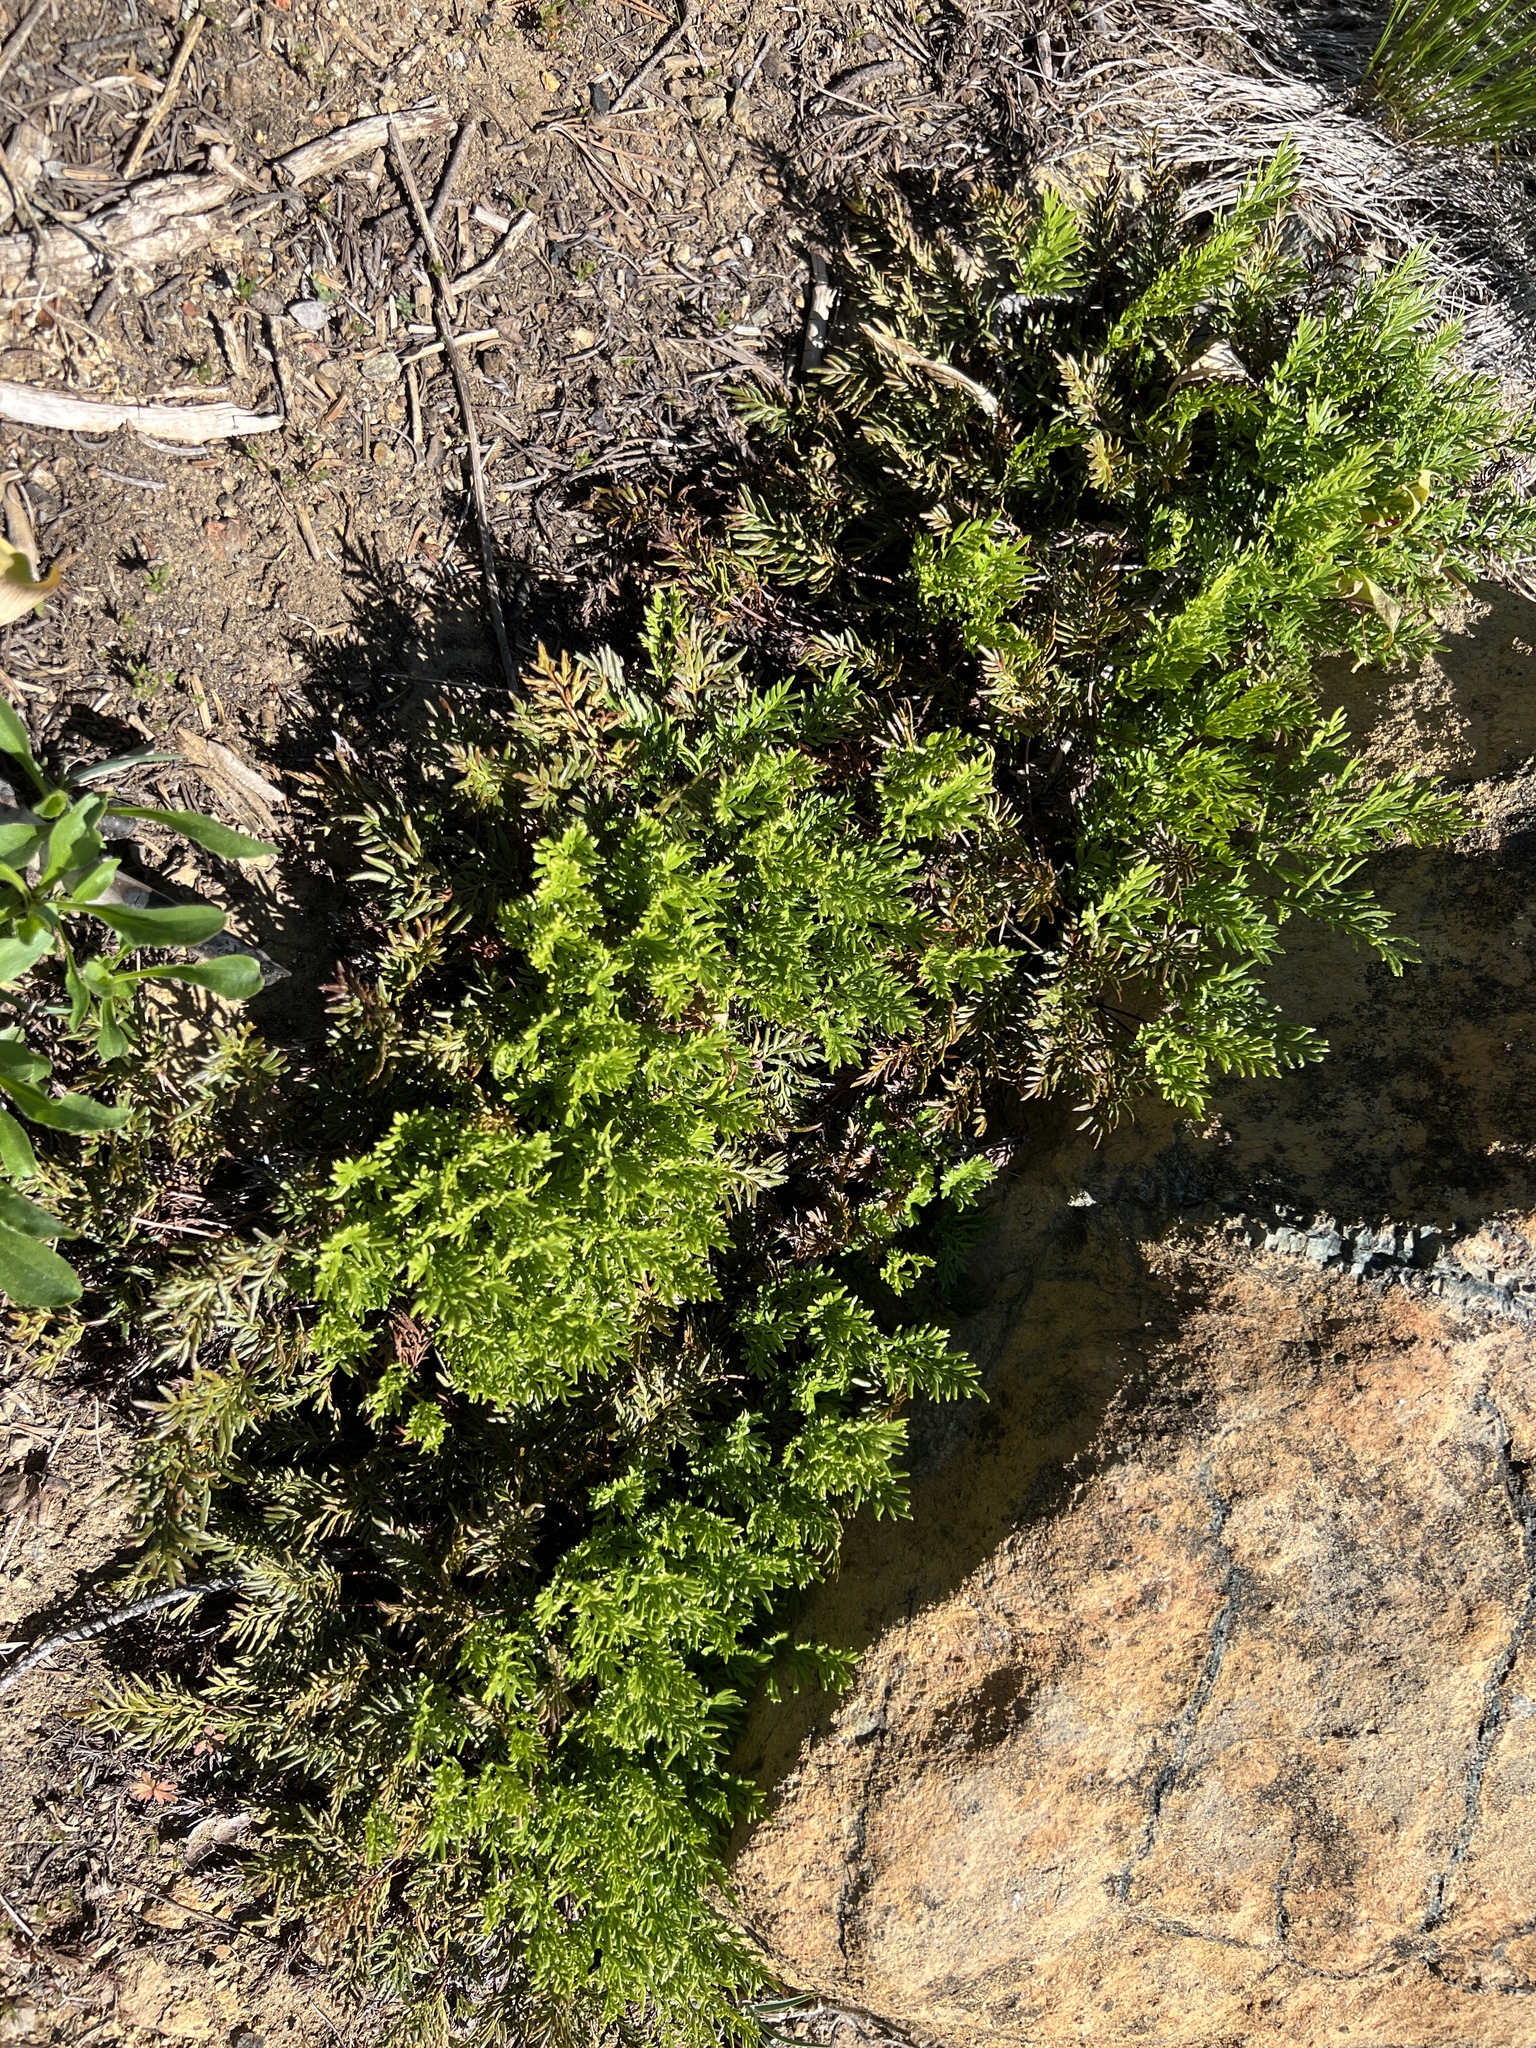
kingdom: Plantae
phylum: Tracheophyta
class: Polypodiopsida
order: Polypodiales
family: Pteridaceae
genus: Aspidotis
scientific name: Aspidotis densa
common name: Indian's dream
